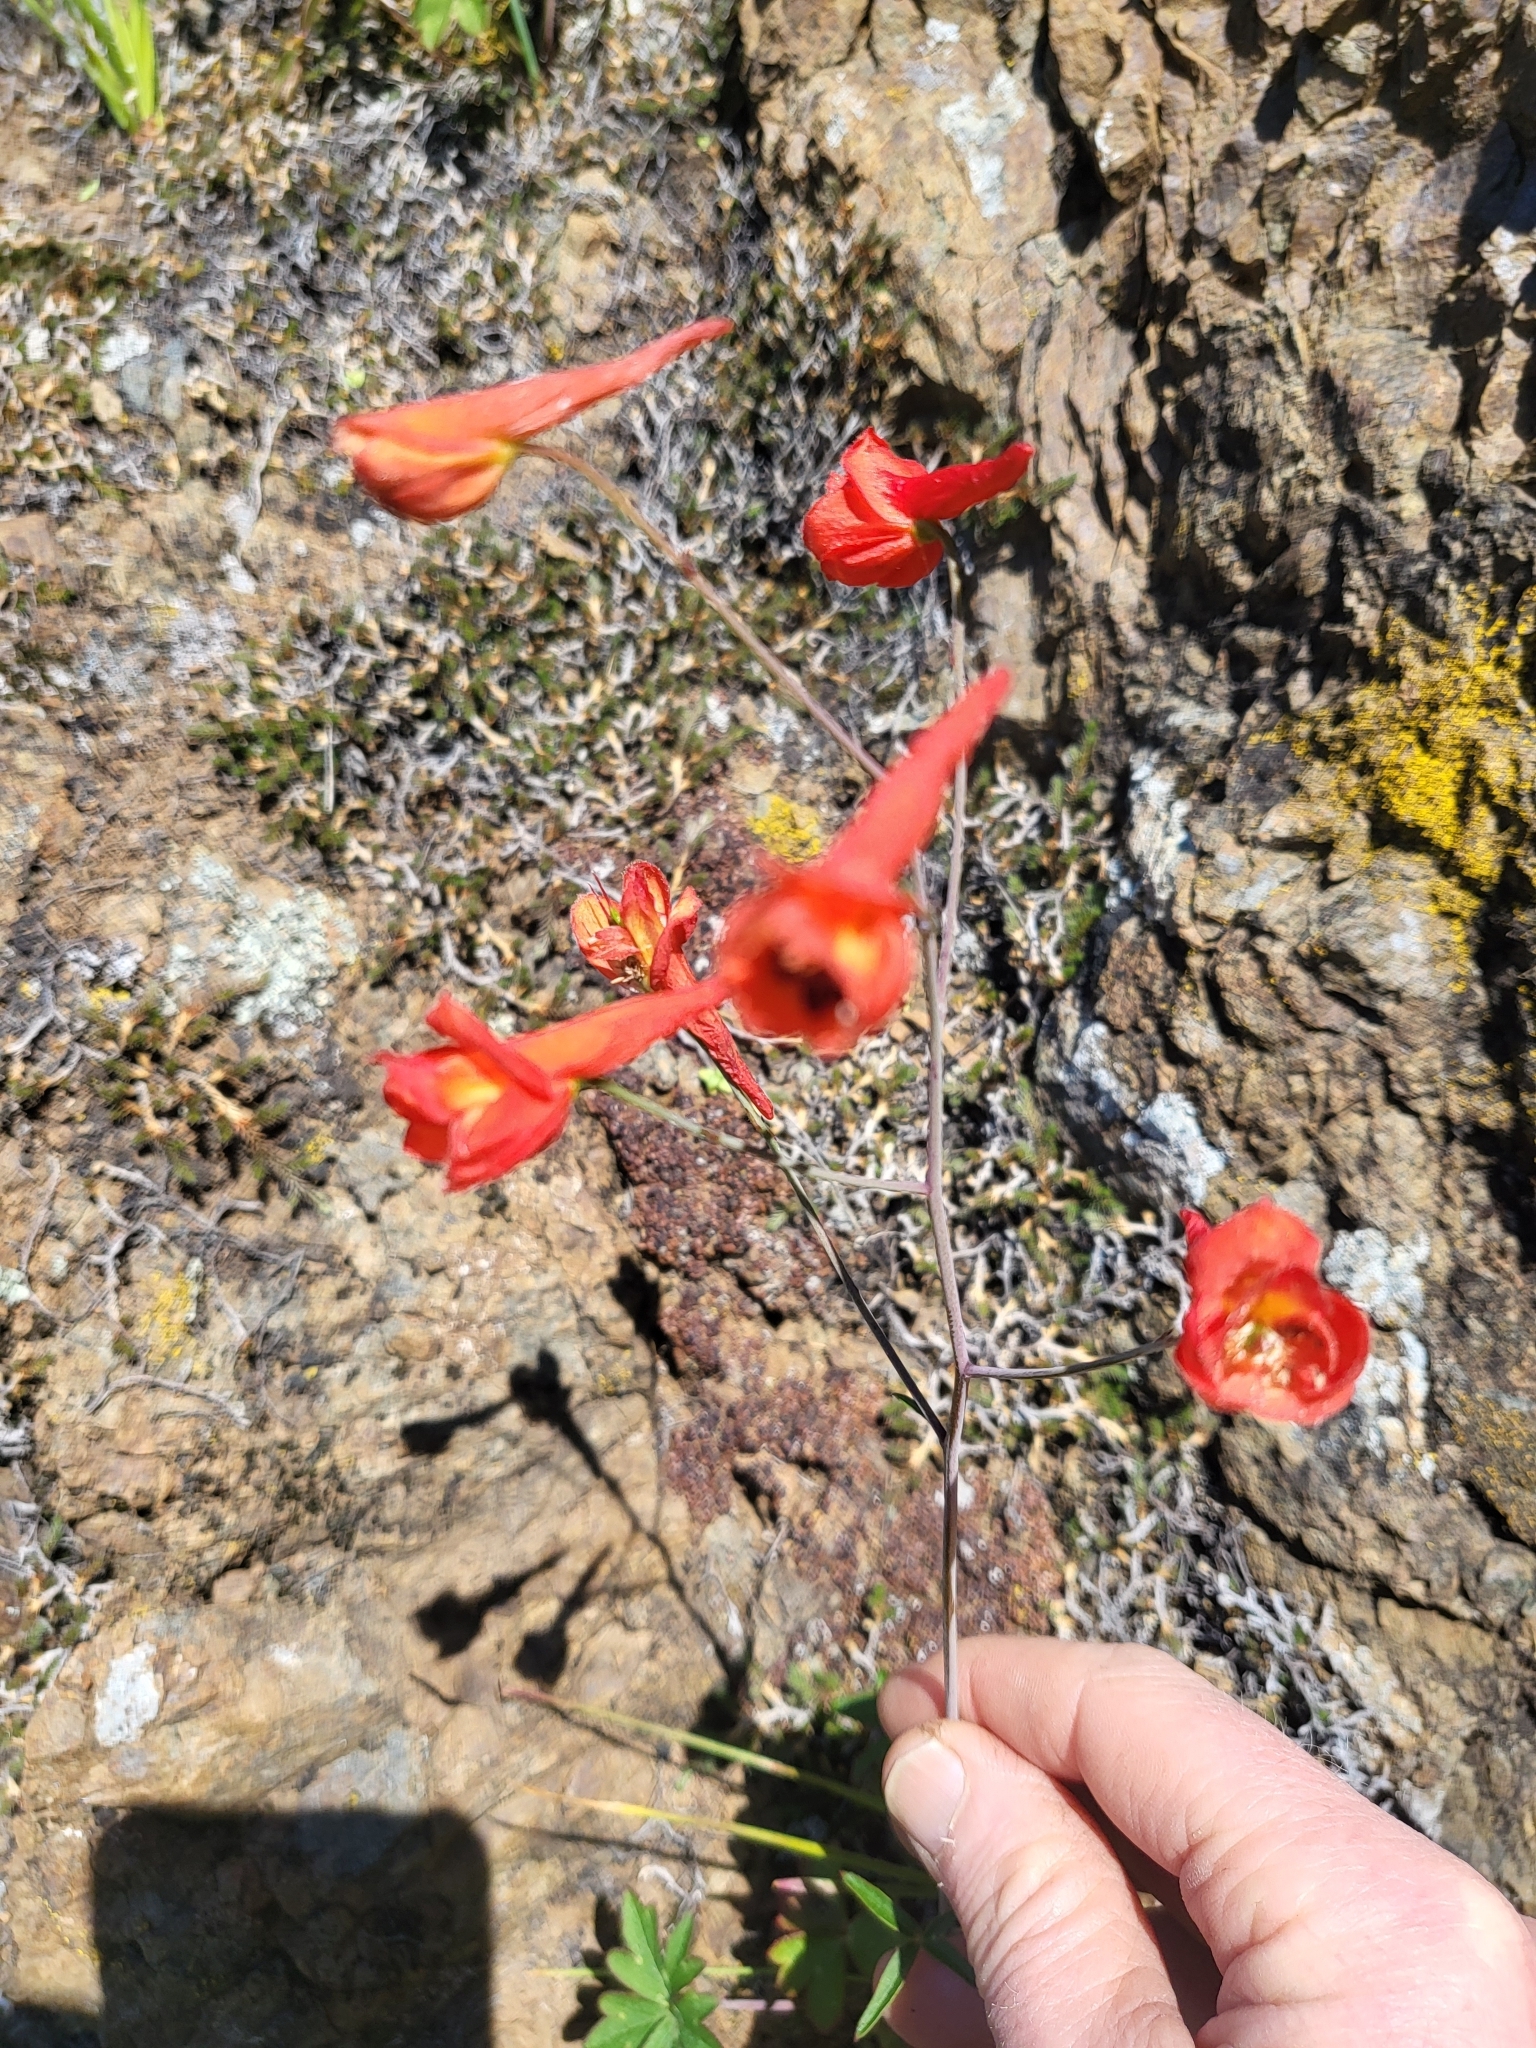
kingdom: Plantae
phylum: Tracheophyta
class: Magnoliopsida
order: Ranunculales
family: Ranunculaceae
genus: Delphinium
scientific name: Delphinium nudicaule
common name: Red larkspur
